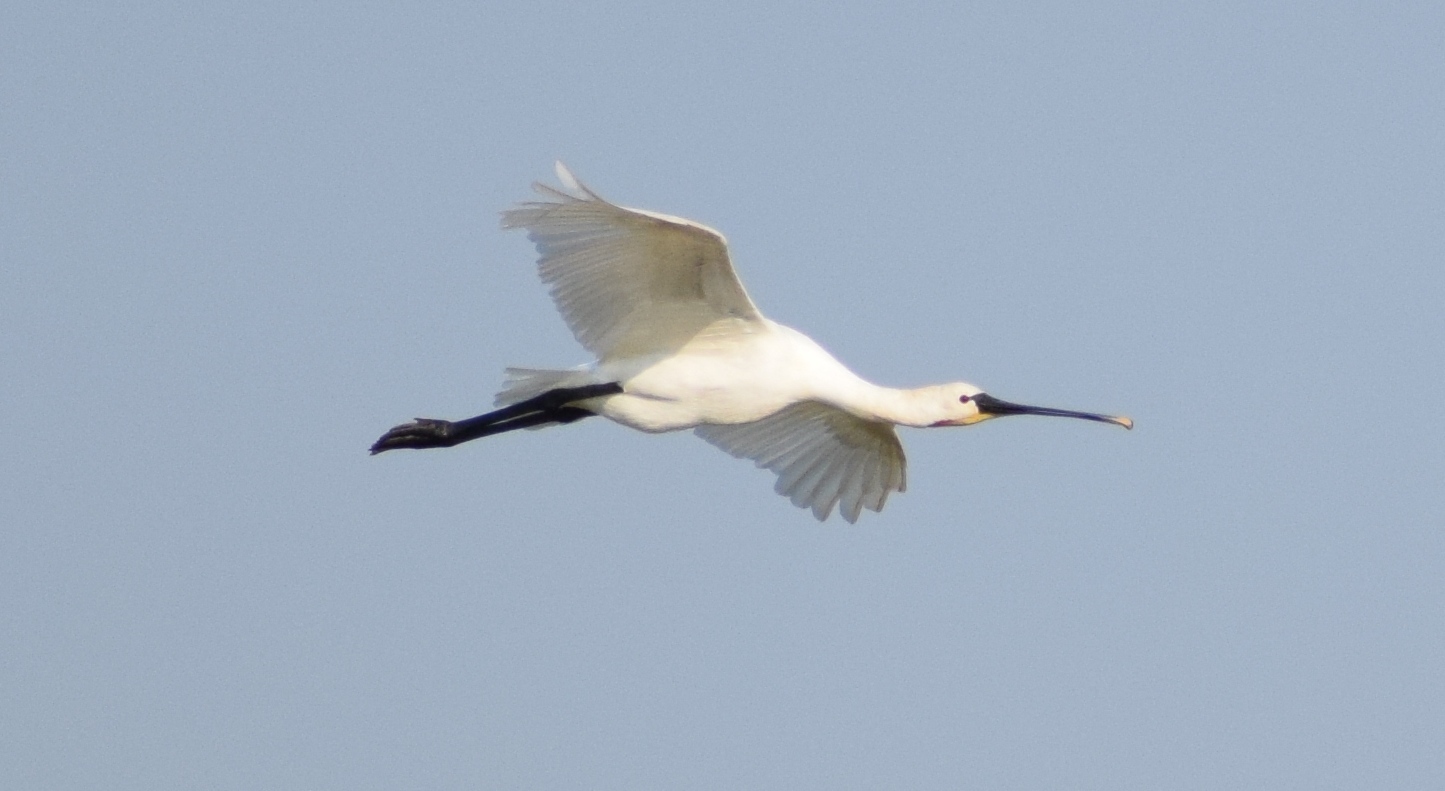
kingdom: Animalia
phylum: Chordata
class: Aves
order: Pelecaniformes
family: Threskiornithidae
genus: Platalea
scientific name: Platalea leucorodia
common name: Eurasian spoonbill
